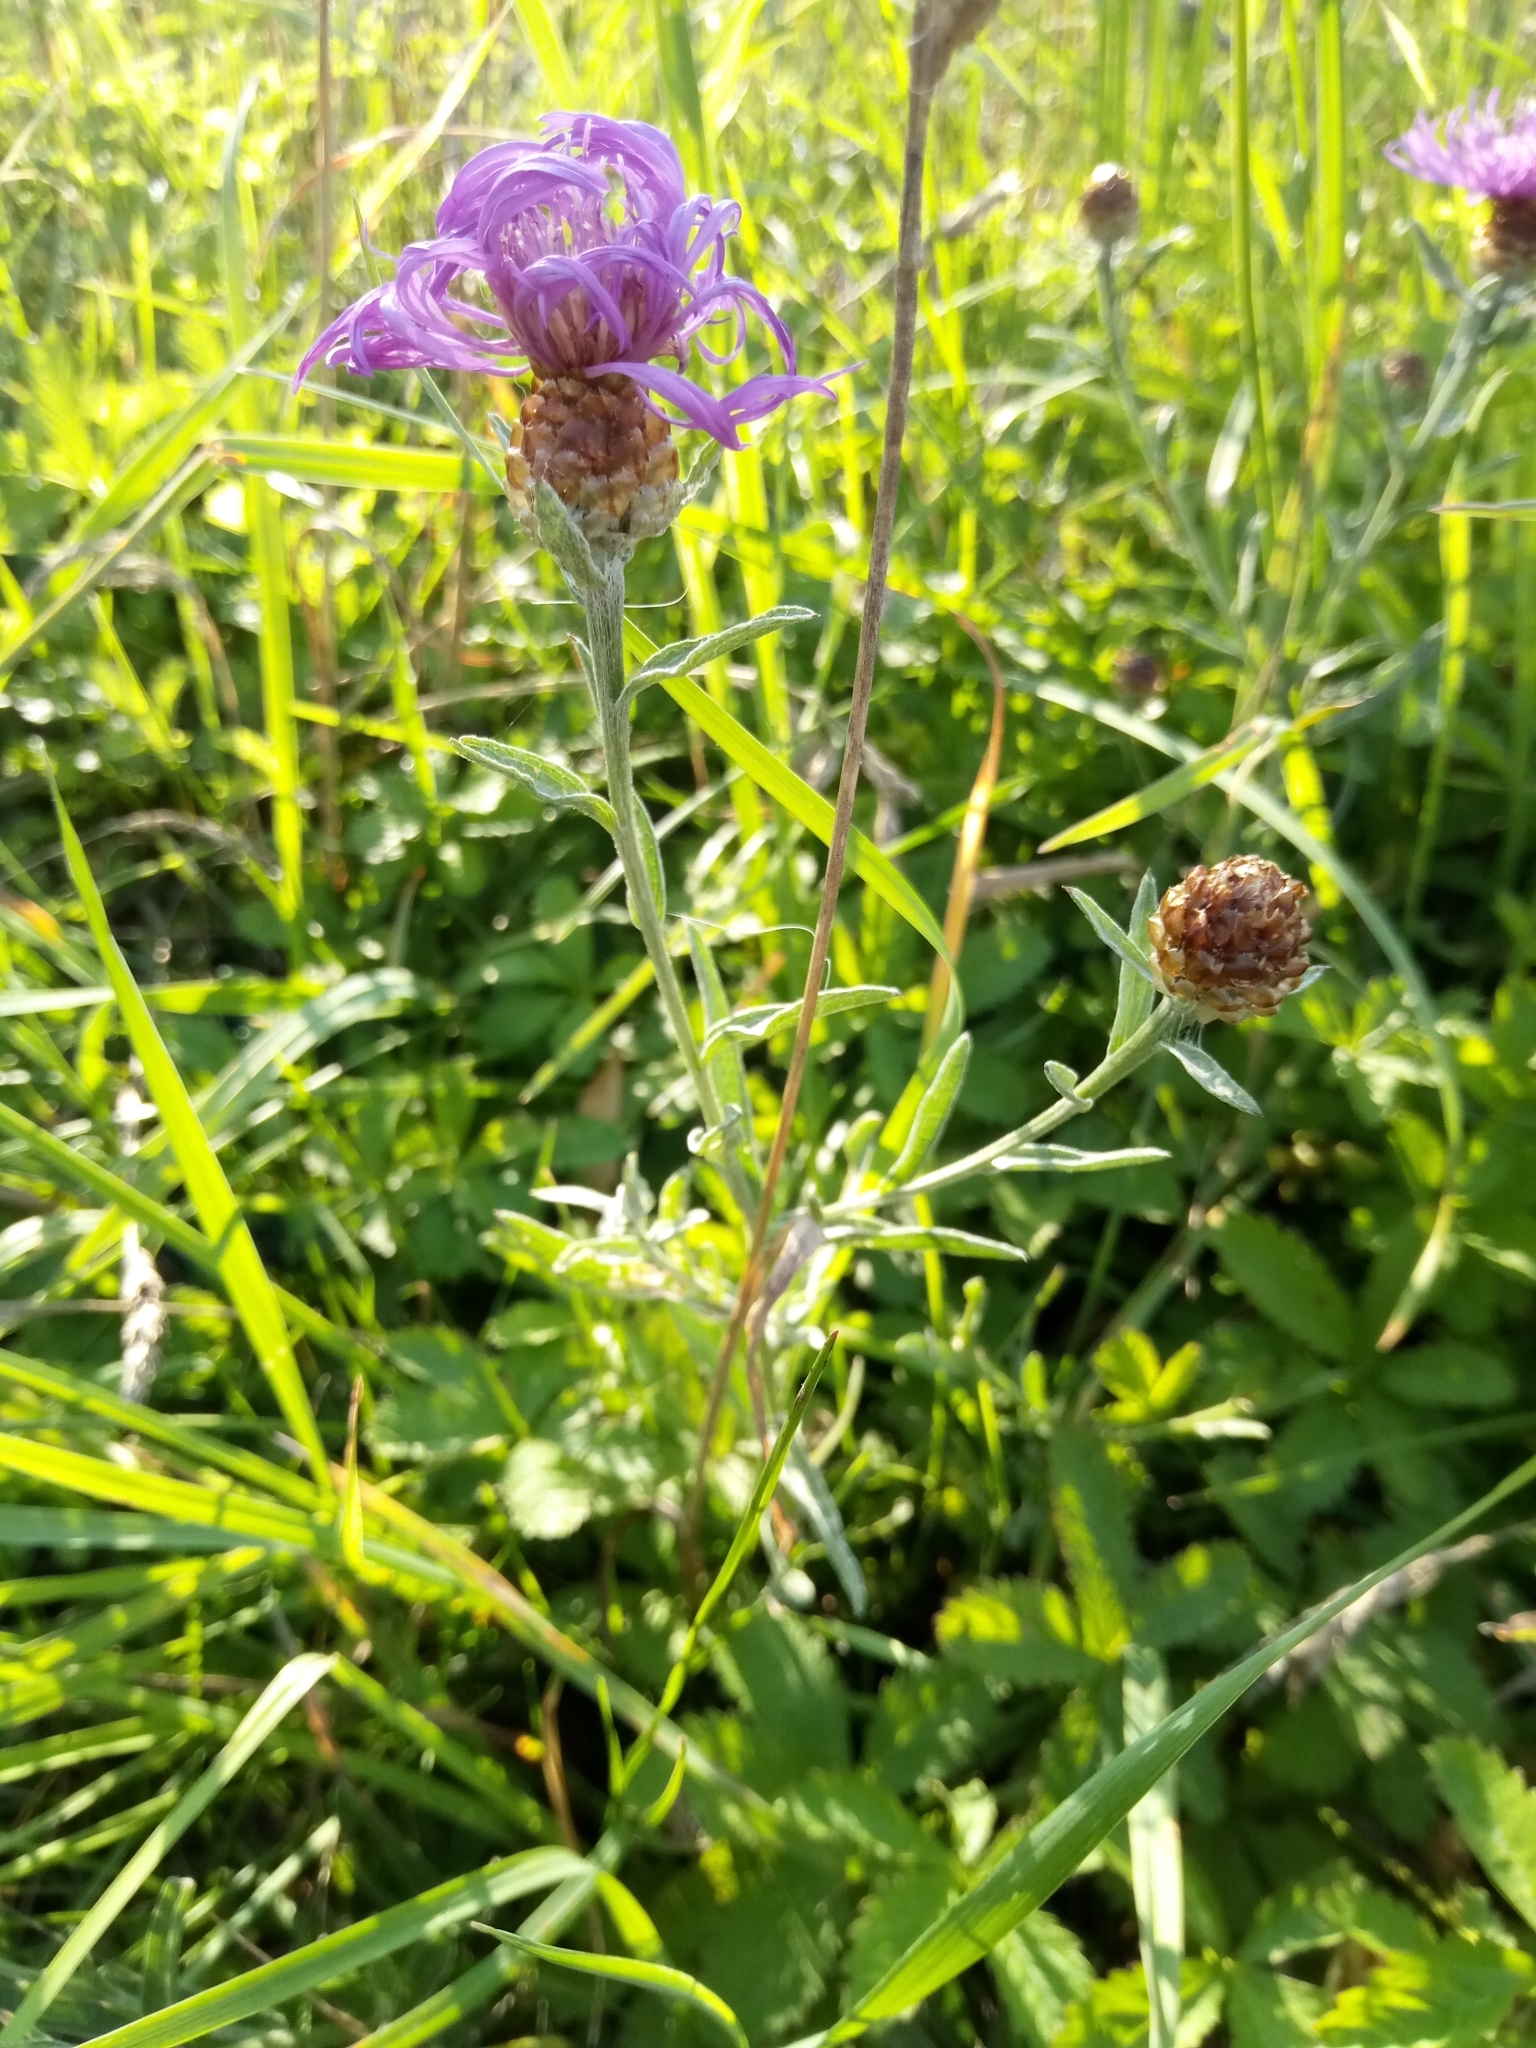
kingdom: Plantae
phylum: Tracheophyta
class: Magnoliopsida
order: Asterales
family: Asteraceae
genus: Centaurea
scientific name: Centaurea jacea
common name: Brown knapweed
